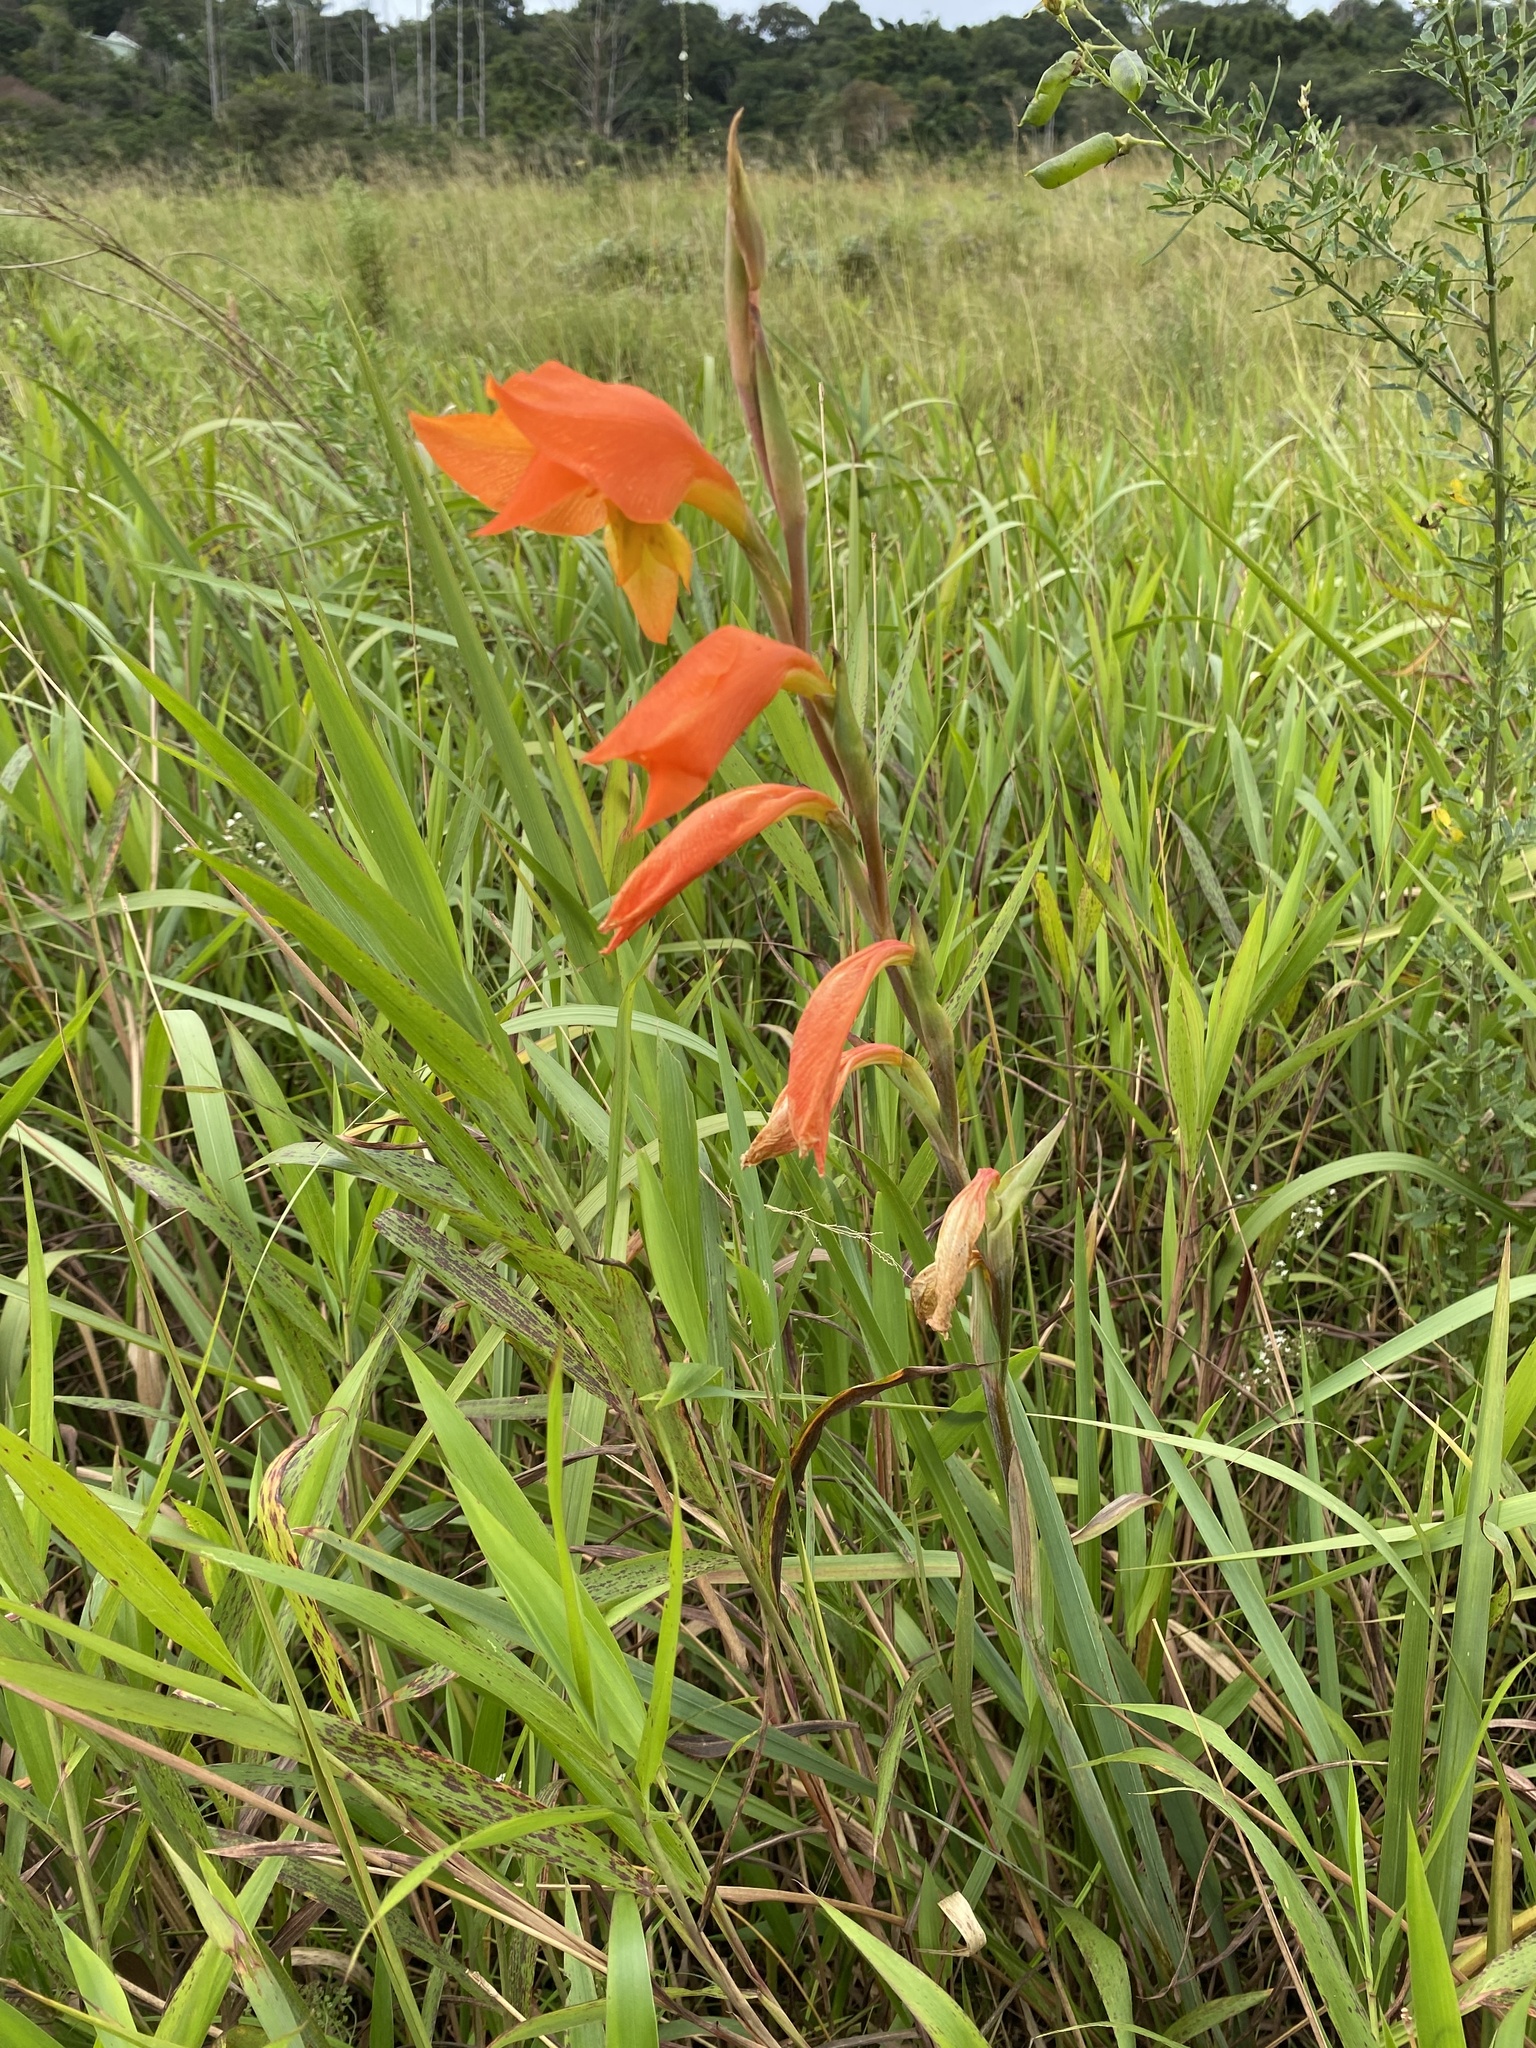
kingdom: Plantae
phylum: Tracheophyta
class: Liliopsida
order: Asparagales
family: Iridaceae
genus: Gladiolus
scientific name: Gladiolus dalenii
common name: Cornflag
